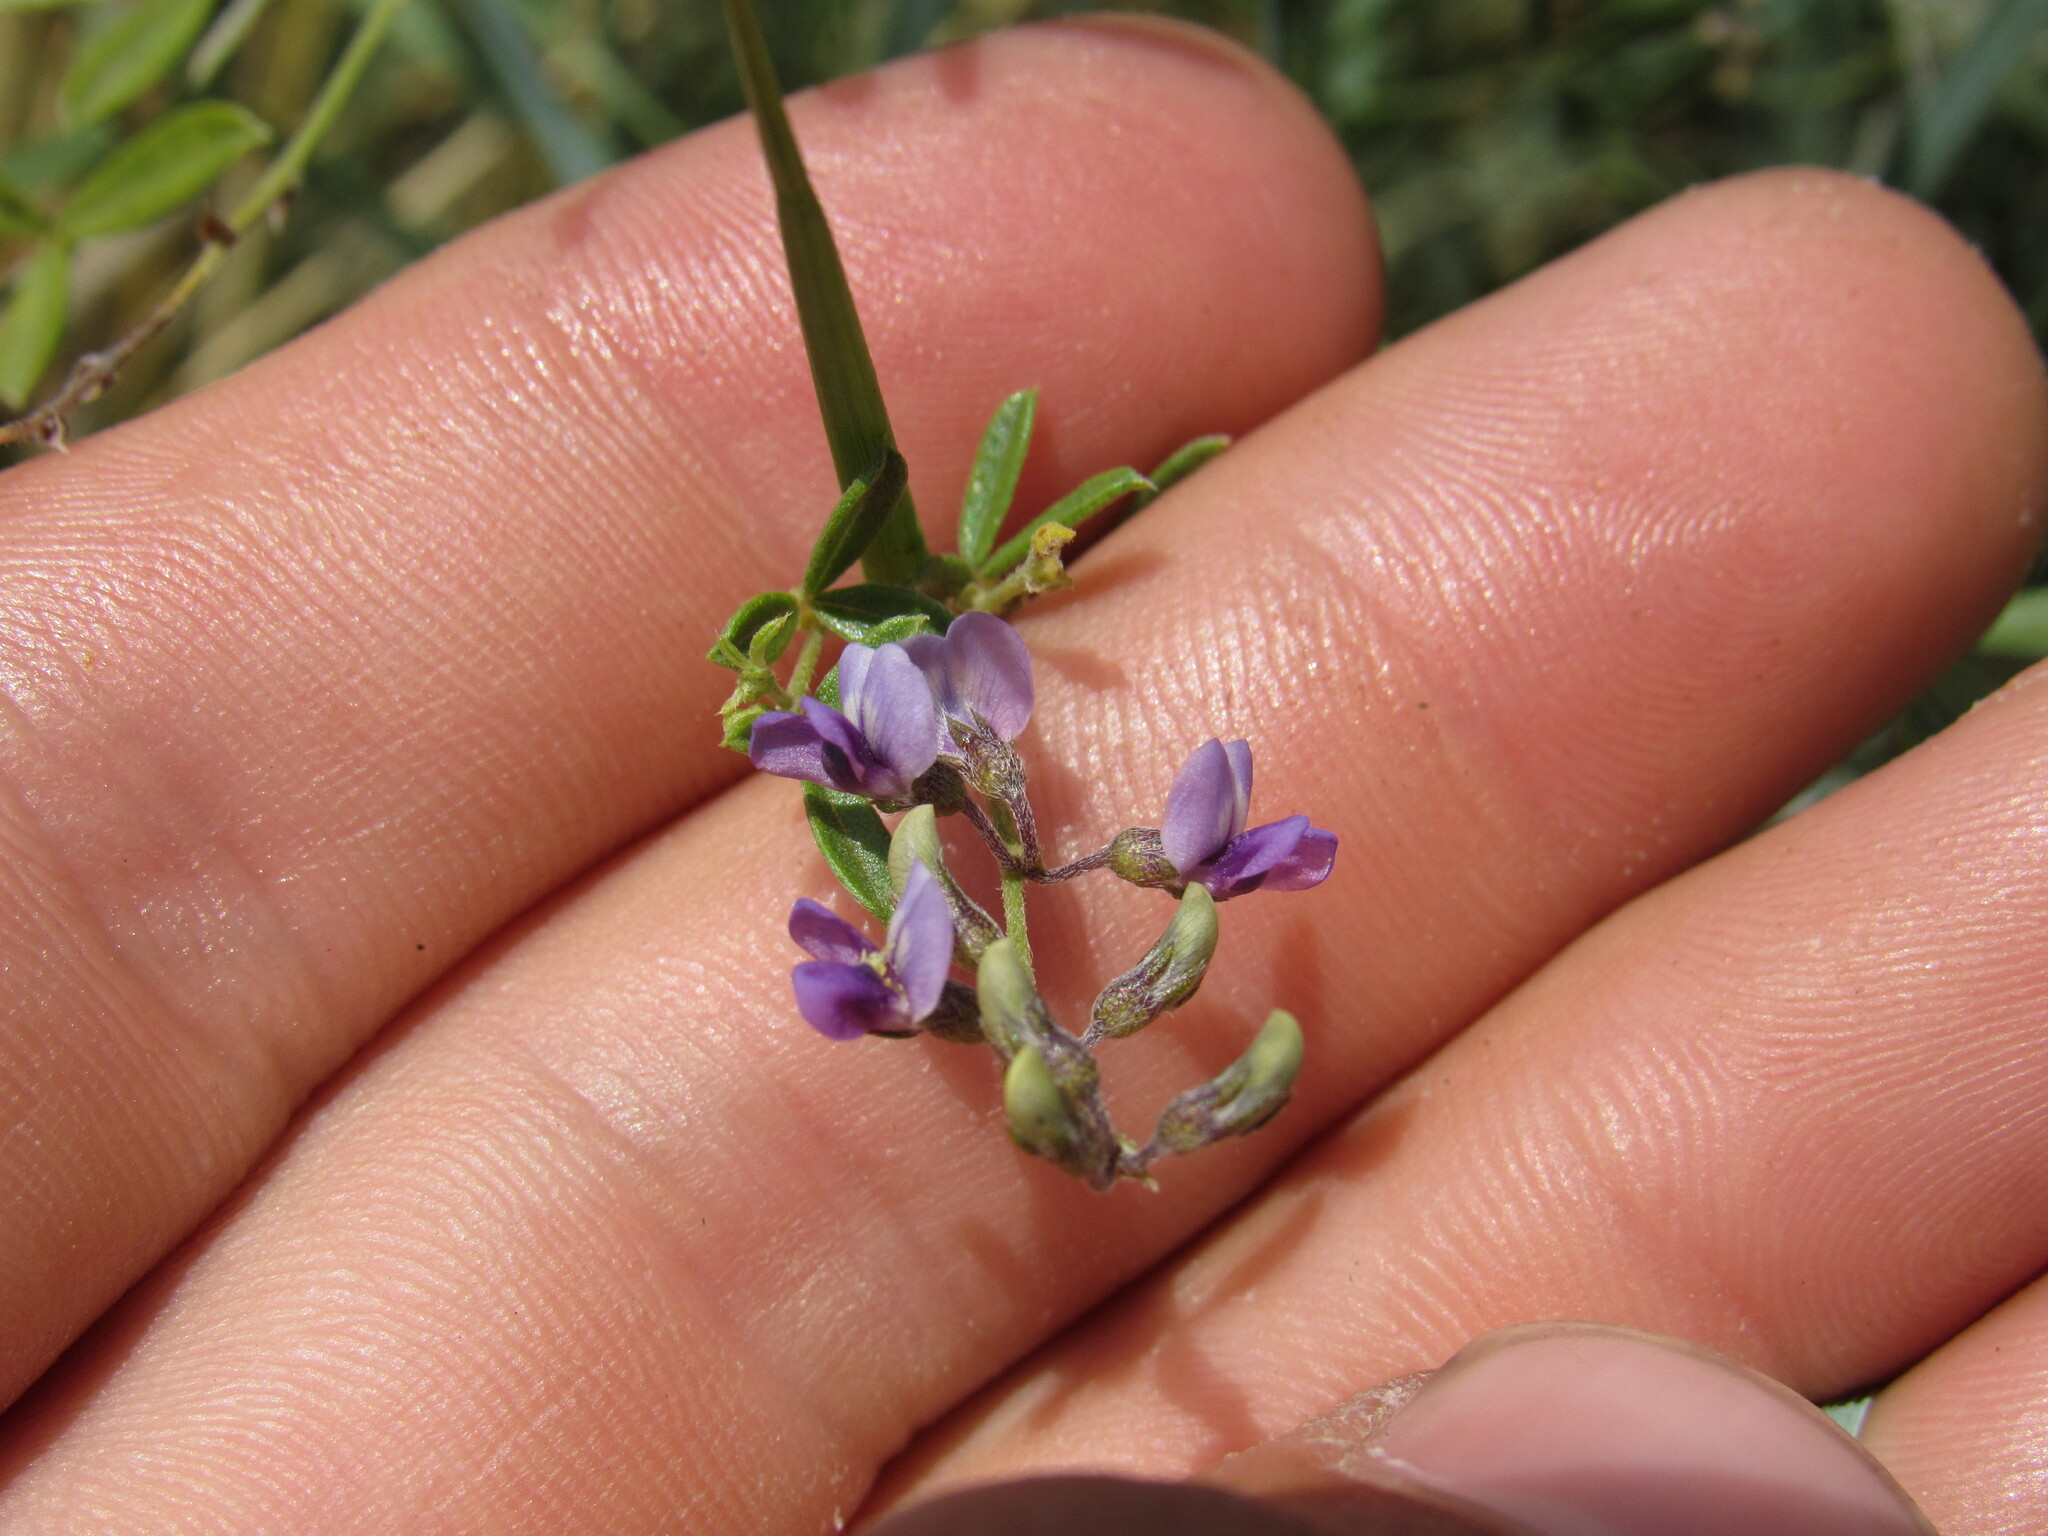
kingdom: Plantae
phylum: Tracheophyta
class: Magnoliopsida
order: Fabales
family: Fabaceae
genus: Pediomelum
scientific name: Pediomelum tenuiflorum
